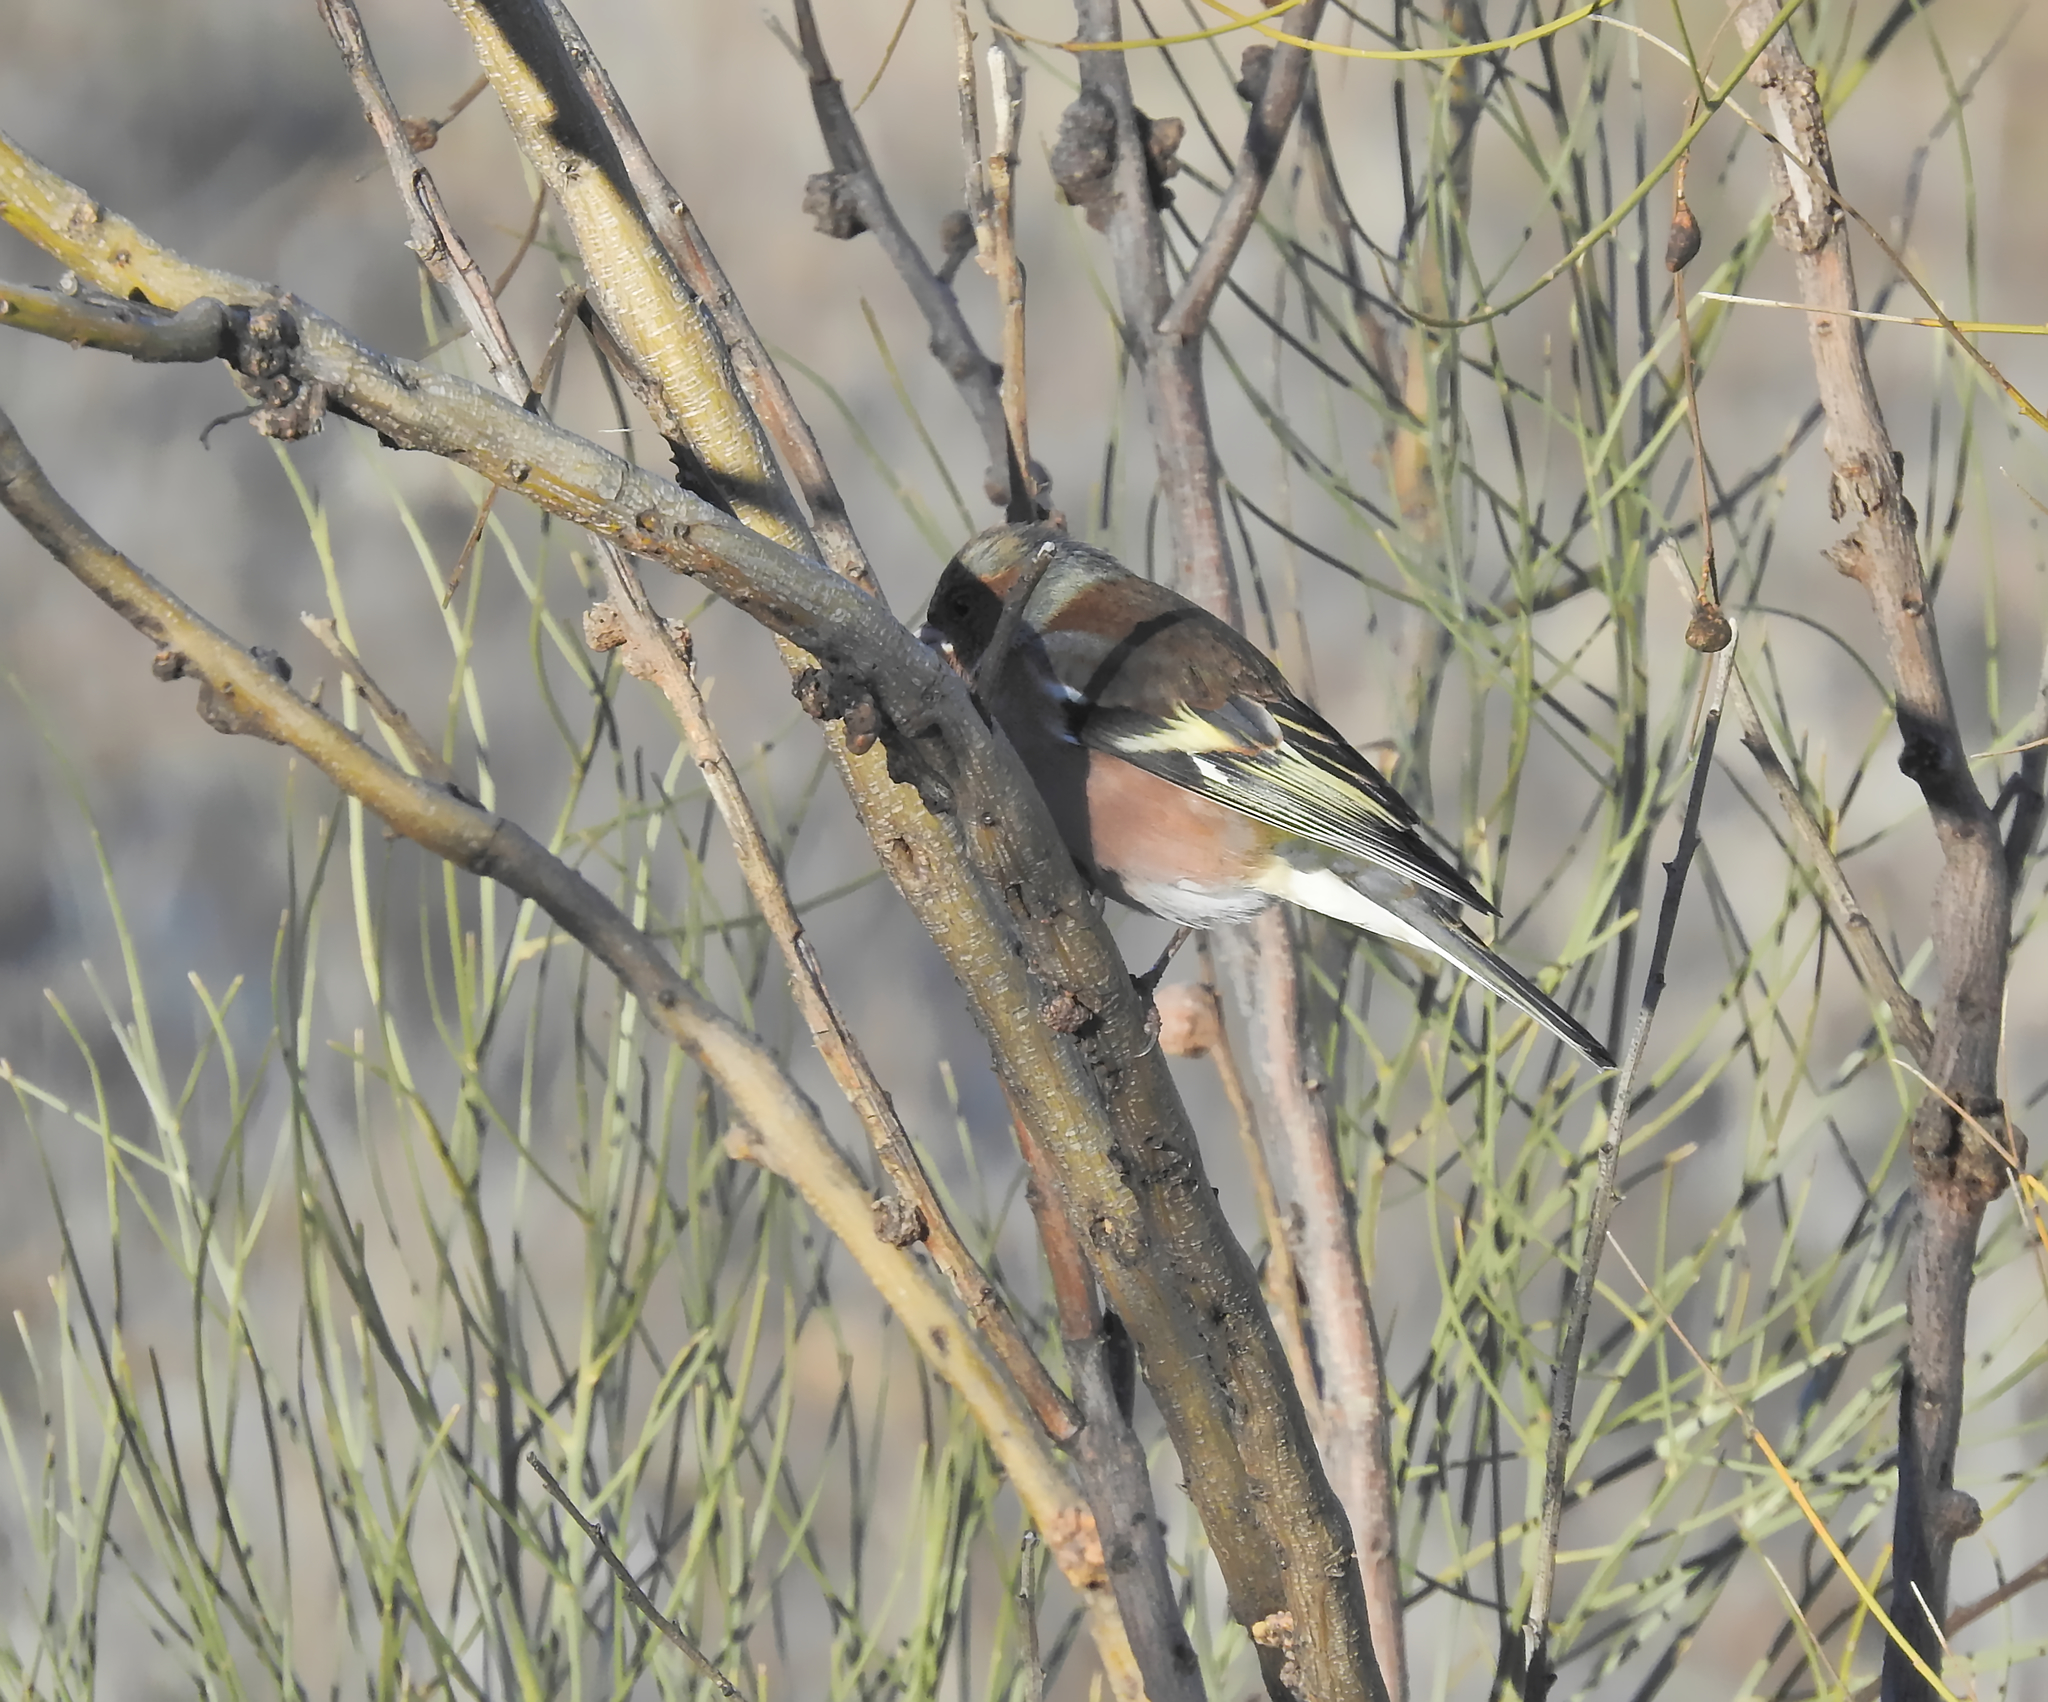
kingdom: Animalia
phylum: Chordata
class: Aves
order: Passeriformes
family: Fringillidae
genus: Fringilla
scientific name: Fringilla coelebs
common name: Common chaffinch
